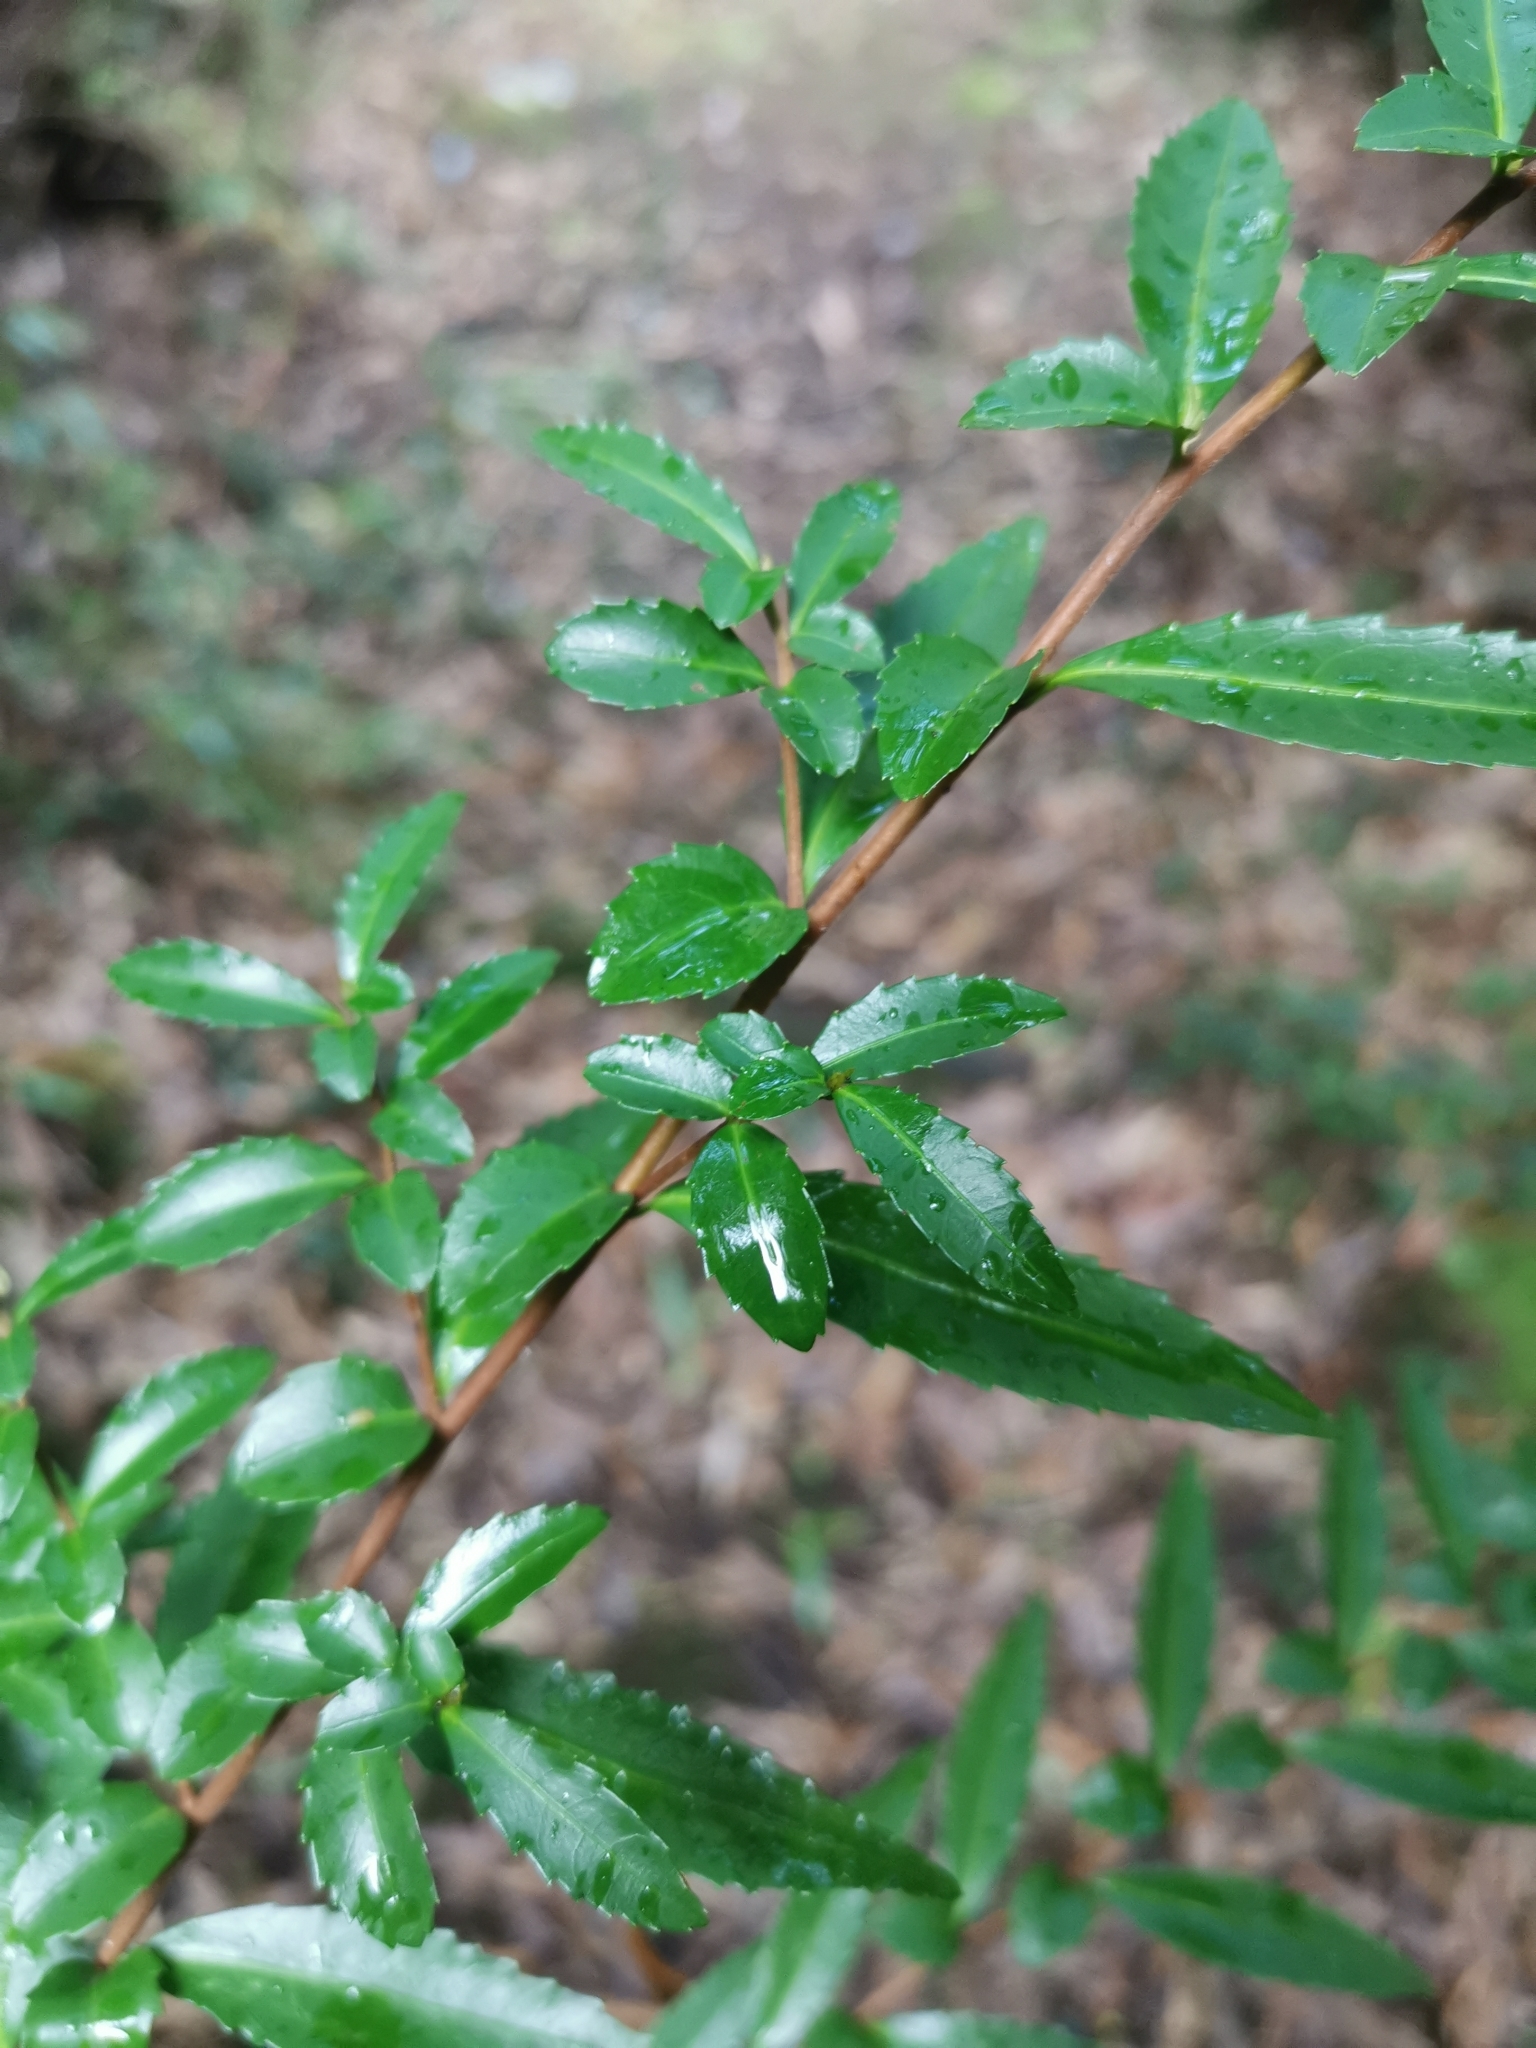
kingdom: Plantae
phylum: Tracheophyta
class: Magnoliopsida
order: Malpighiales
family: Salicaceae
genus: Azara
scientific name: Azara lanceolata
